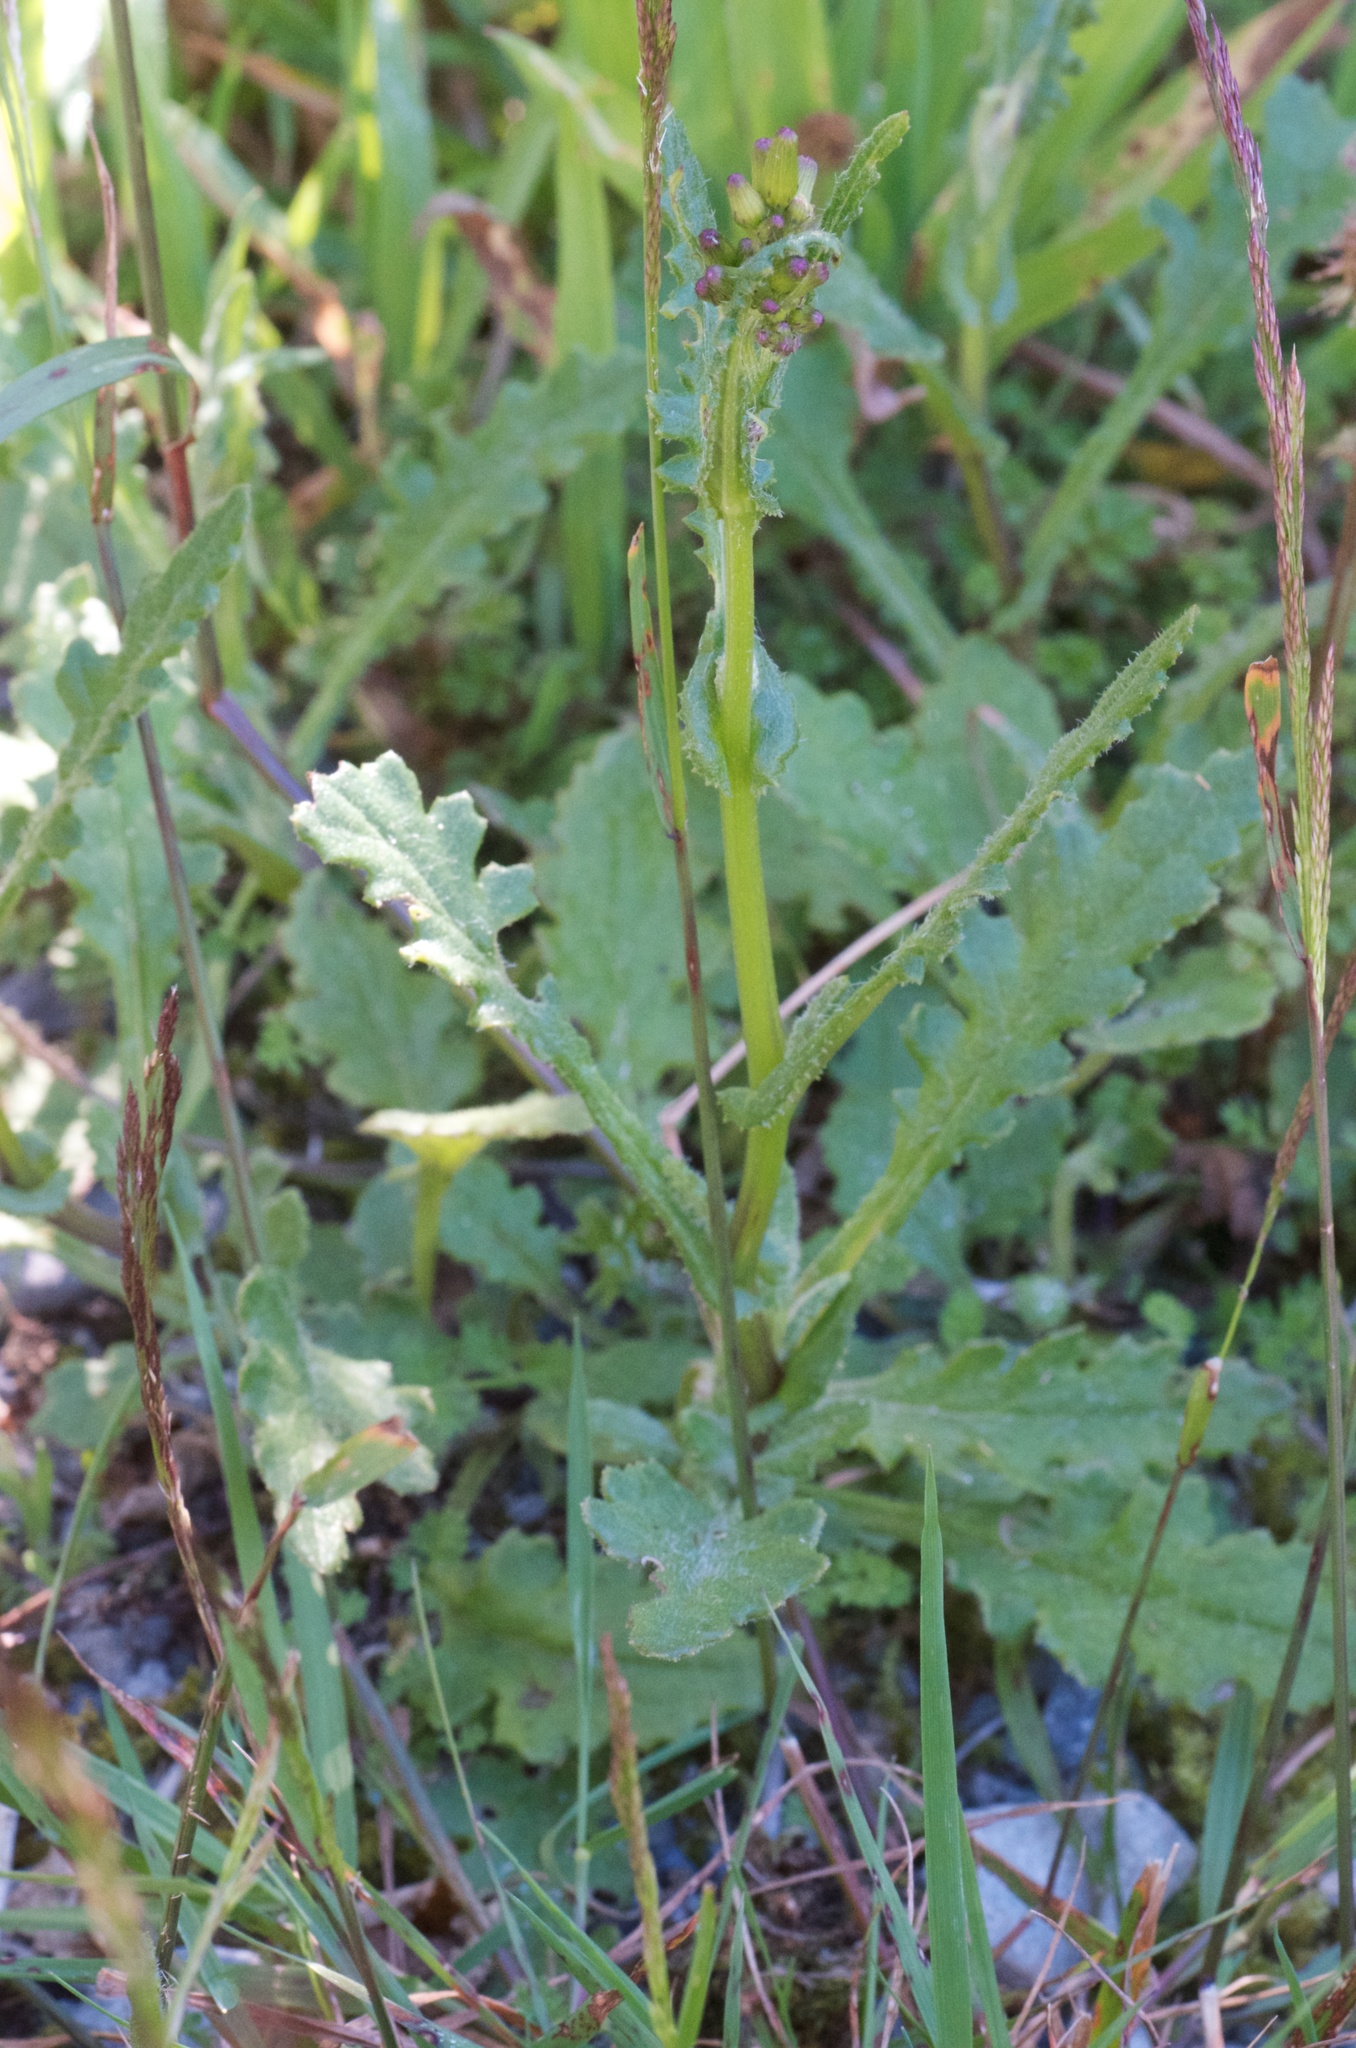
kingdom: Plantae
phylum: Tracheophyta
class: Magnoliopsida
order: Asterales
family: Asteraceae
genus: Senecio
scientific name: Senecio wairauensis
